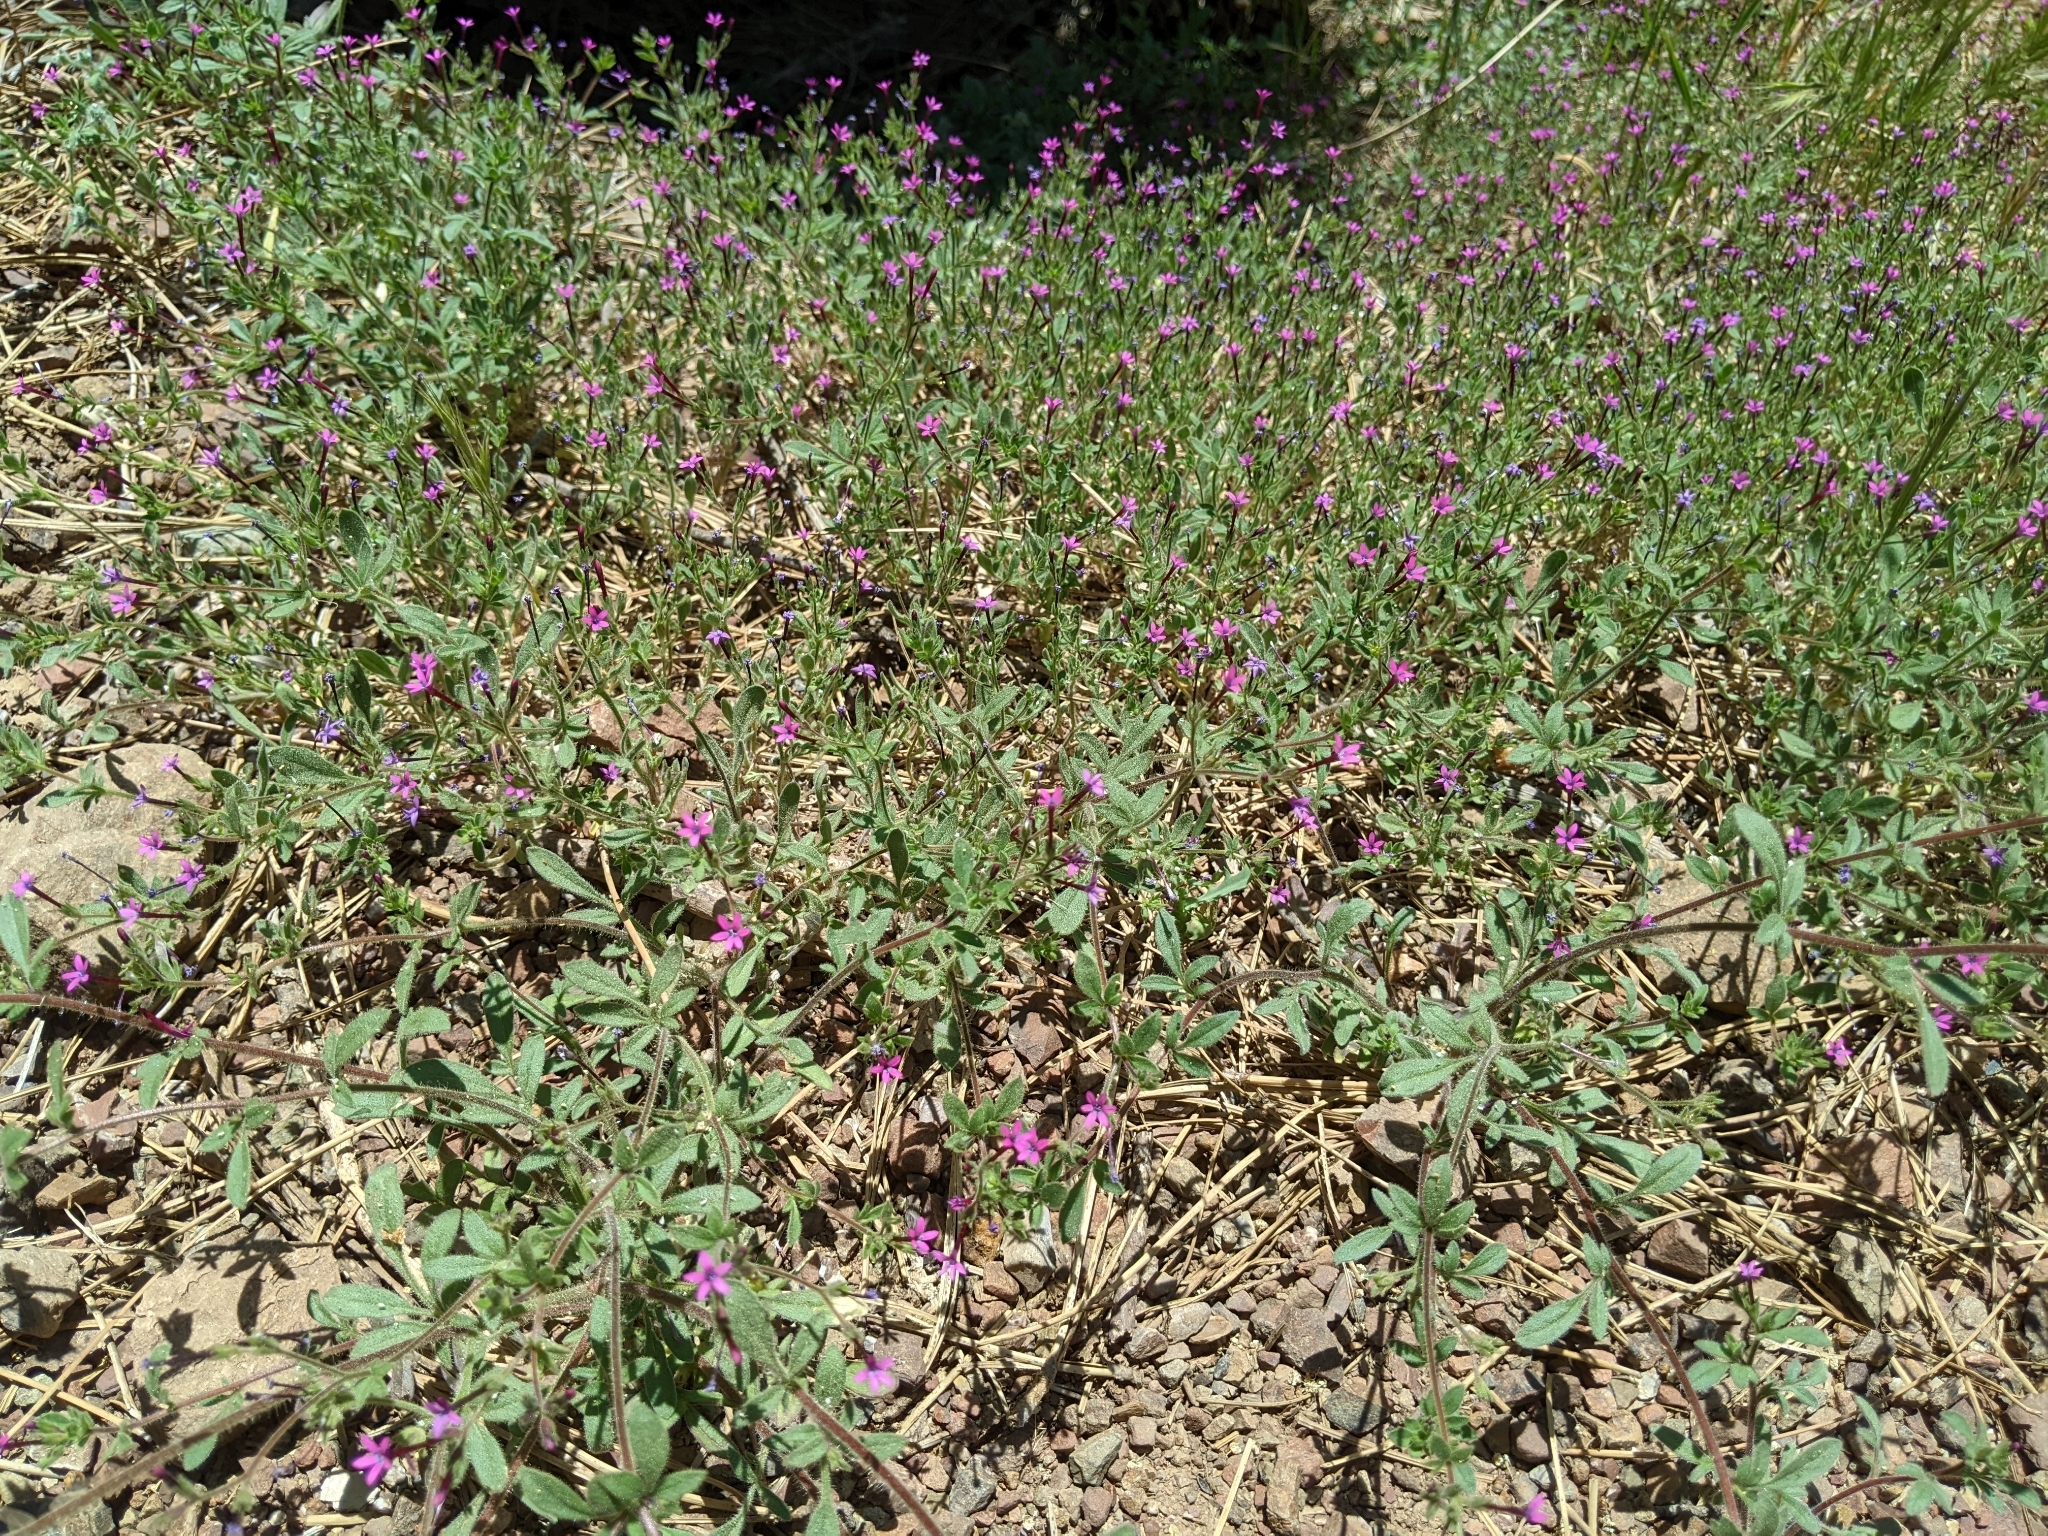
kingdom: Plantae
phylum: Tracheophyta
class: Magnoliopsida
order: Ericales
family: Polemoniaceae
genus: Allophyllum
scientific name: Allophyllum divaricatum
